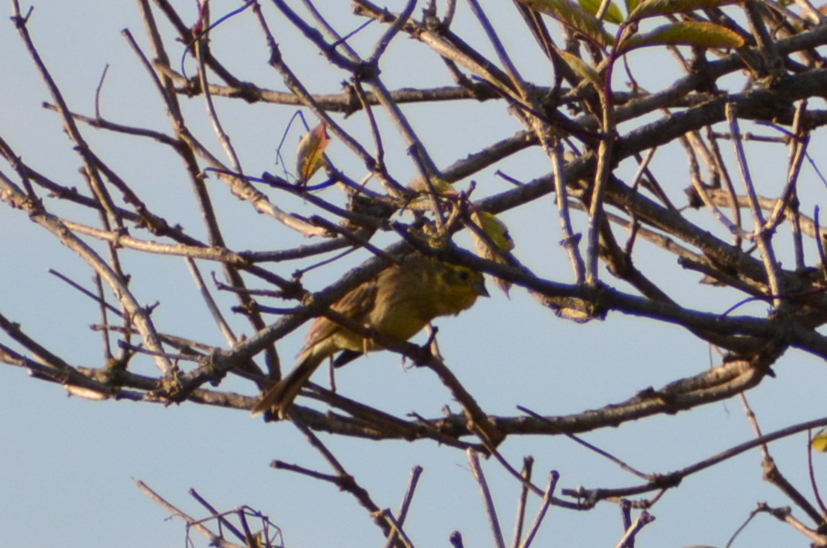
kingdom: Animalia
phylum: Chordata
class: Aves
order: Passeriformes
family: Emberizidae
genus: Emberiza
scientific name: Emberiza citrinella
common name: Yellowhammer
